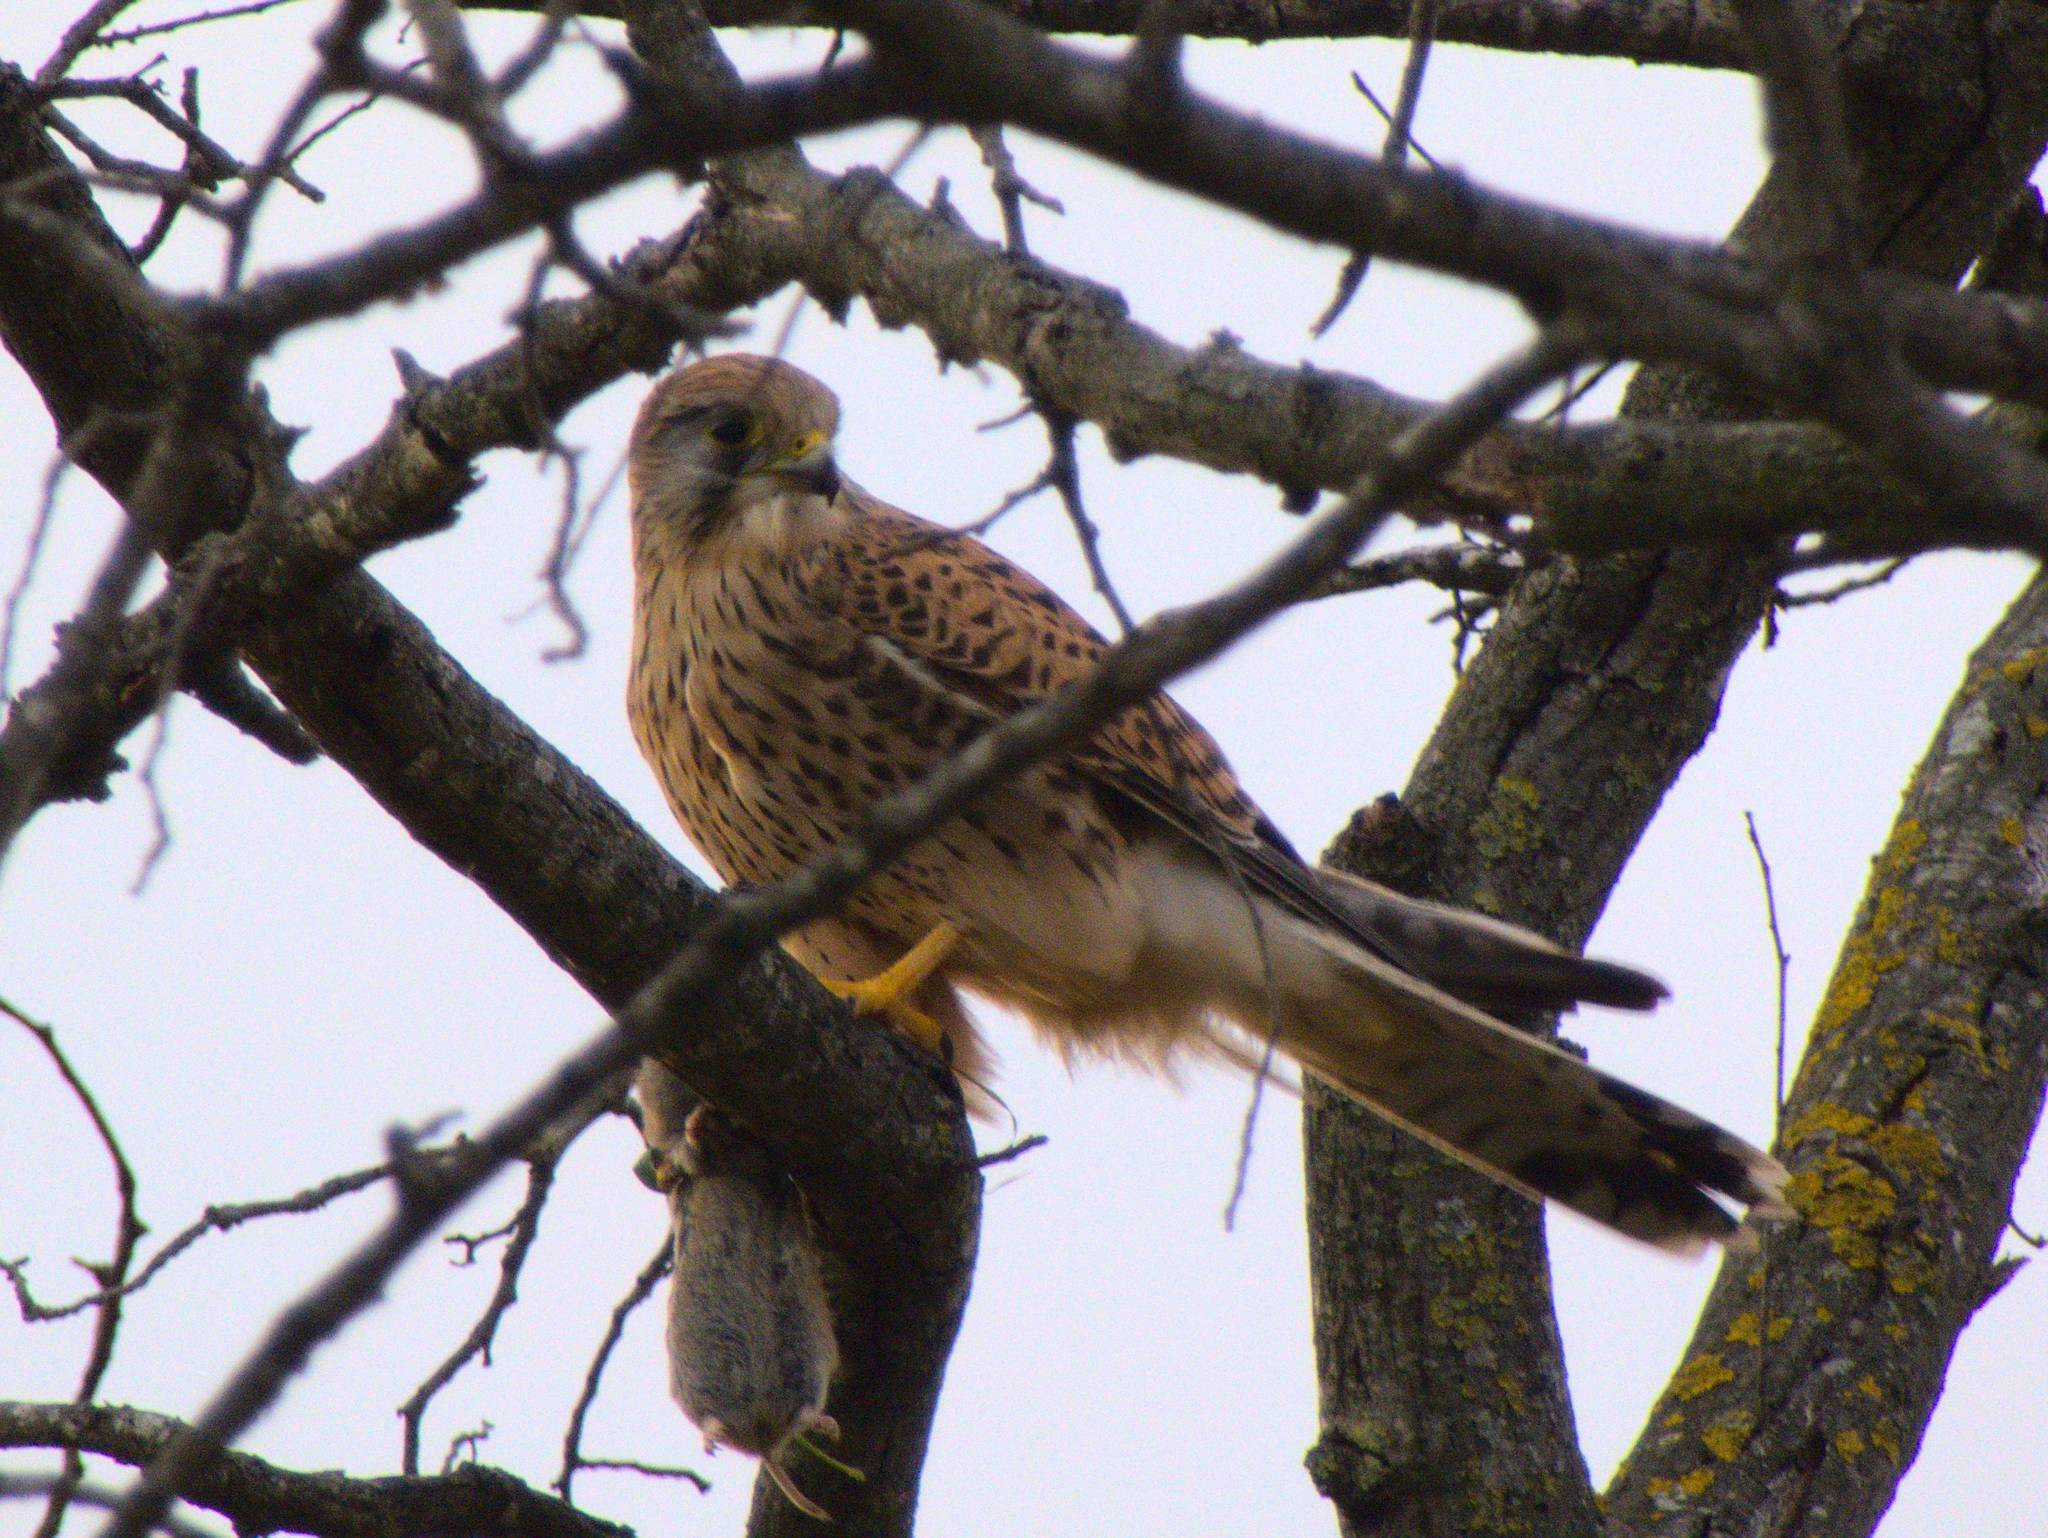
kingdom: Animalia
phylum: Chordata
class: Aves
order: Falconiformes
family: Falconidae
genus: Falco
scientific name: Falco tinnunculus
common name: Common kestrel
